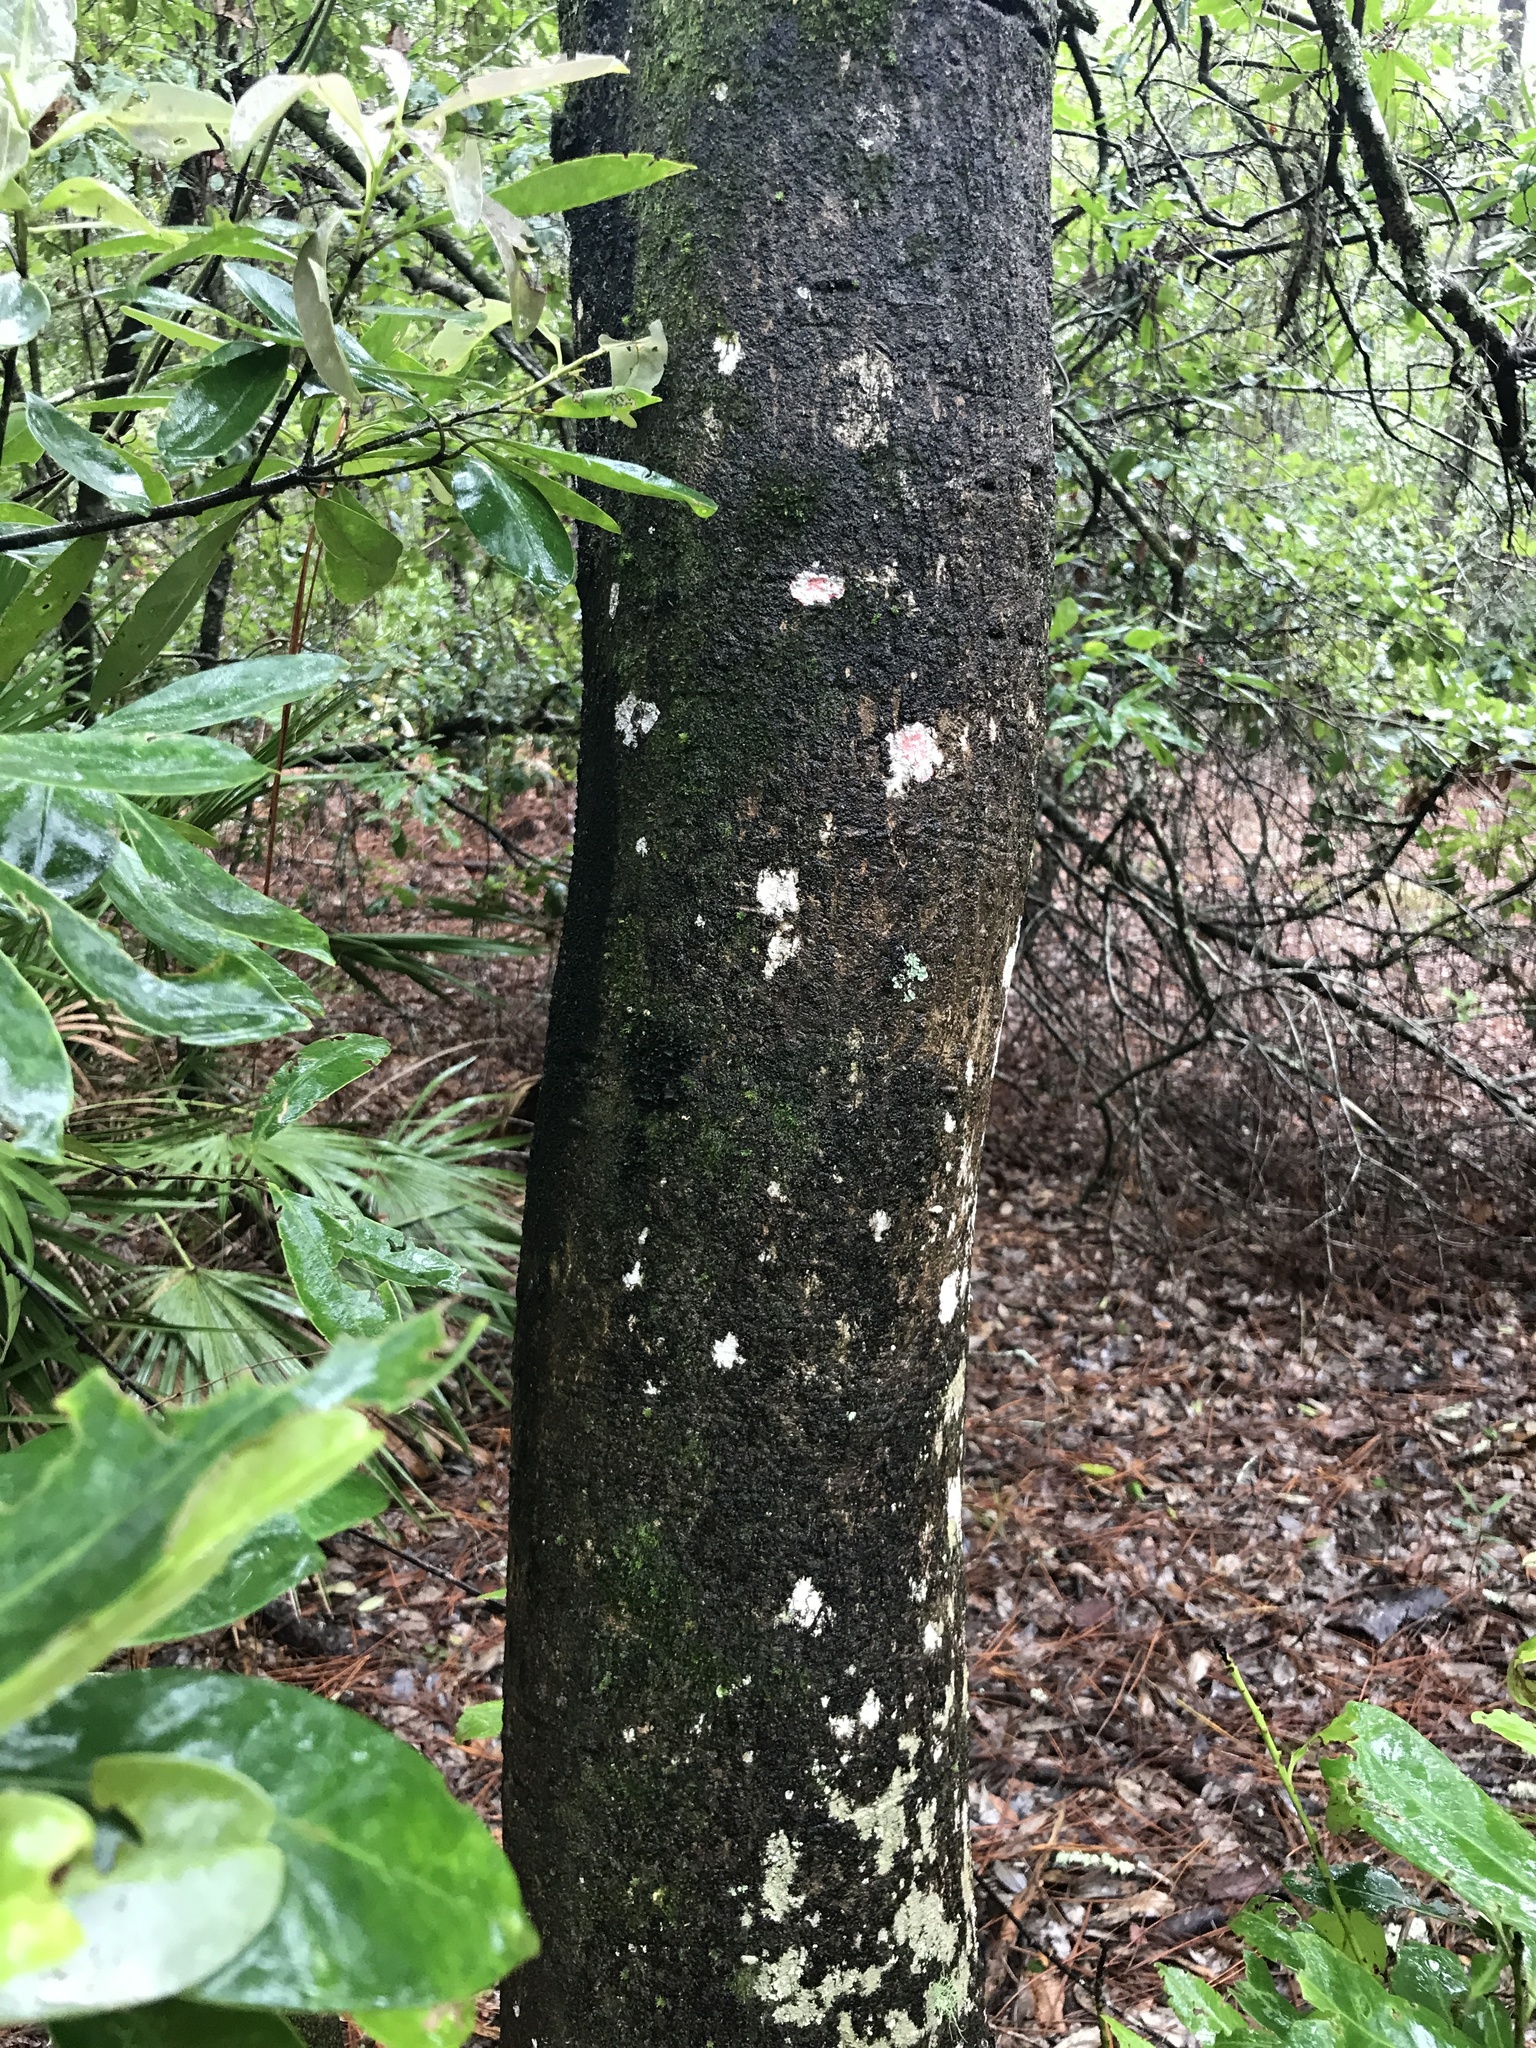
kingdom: Plantae
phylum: Tracheophyta
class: Magnoliopsida
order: Aquifoliales
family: Aquifoliaceae
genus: Ilex
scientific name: Ilex cassine
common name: Dahoon
